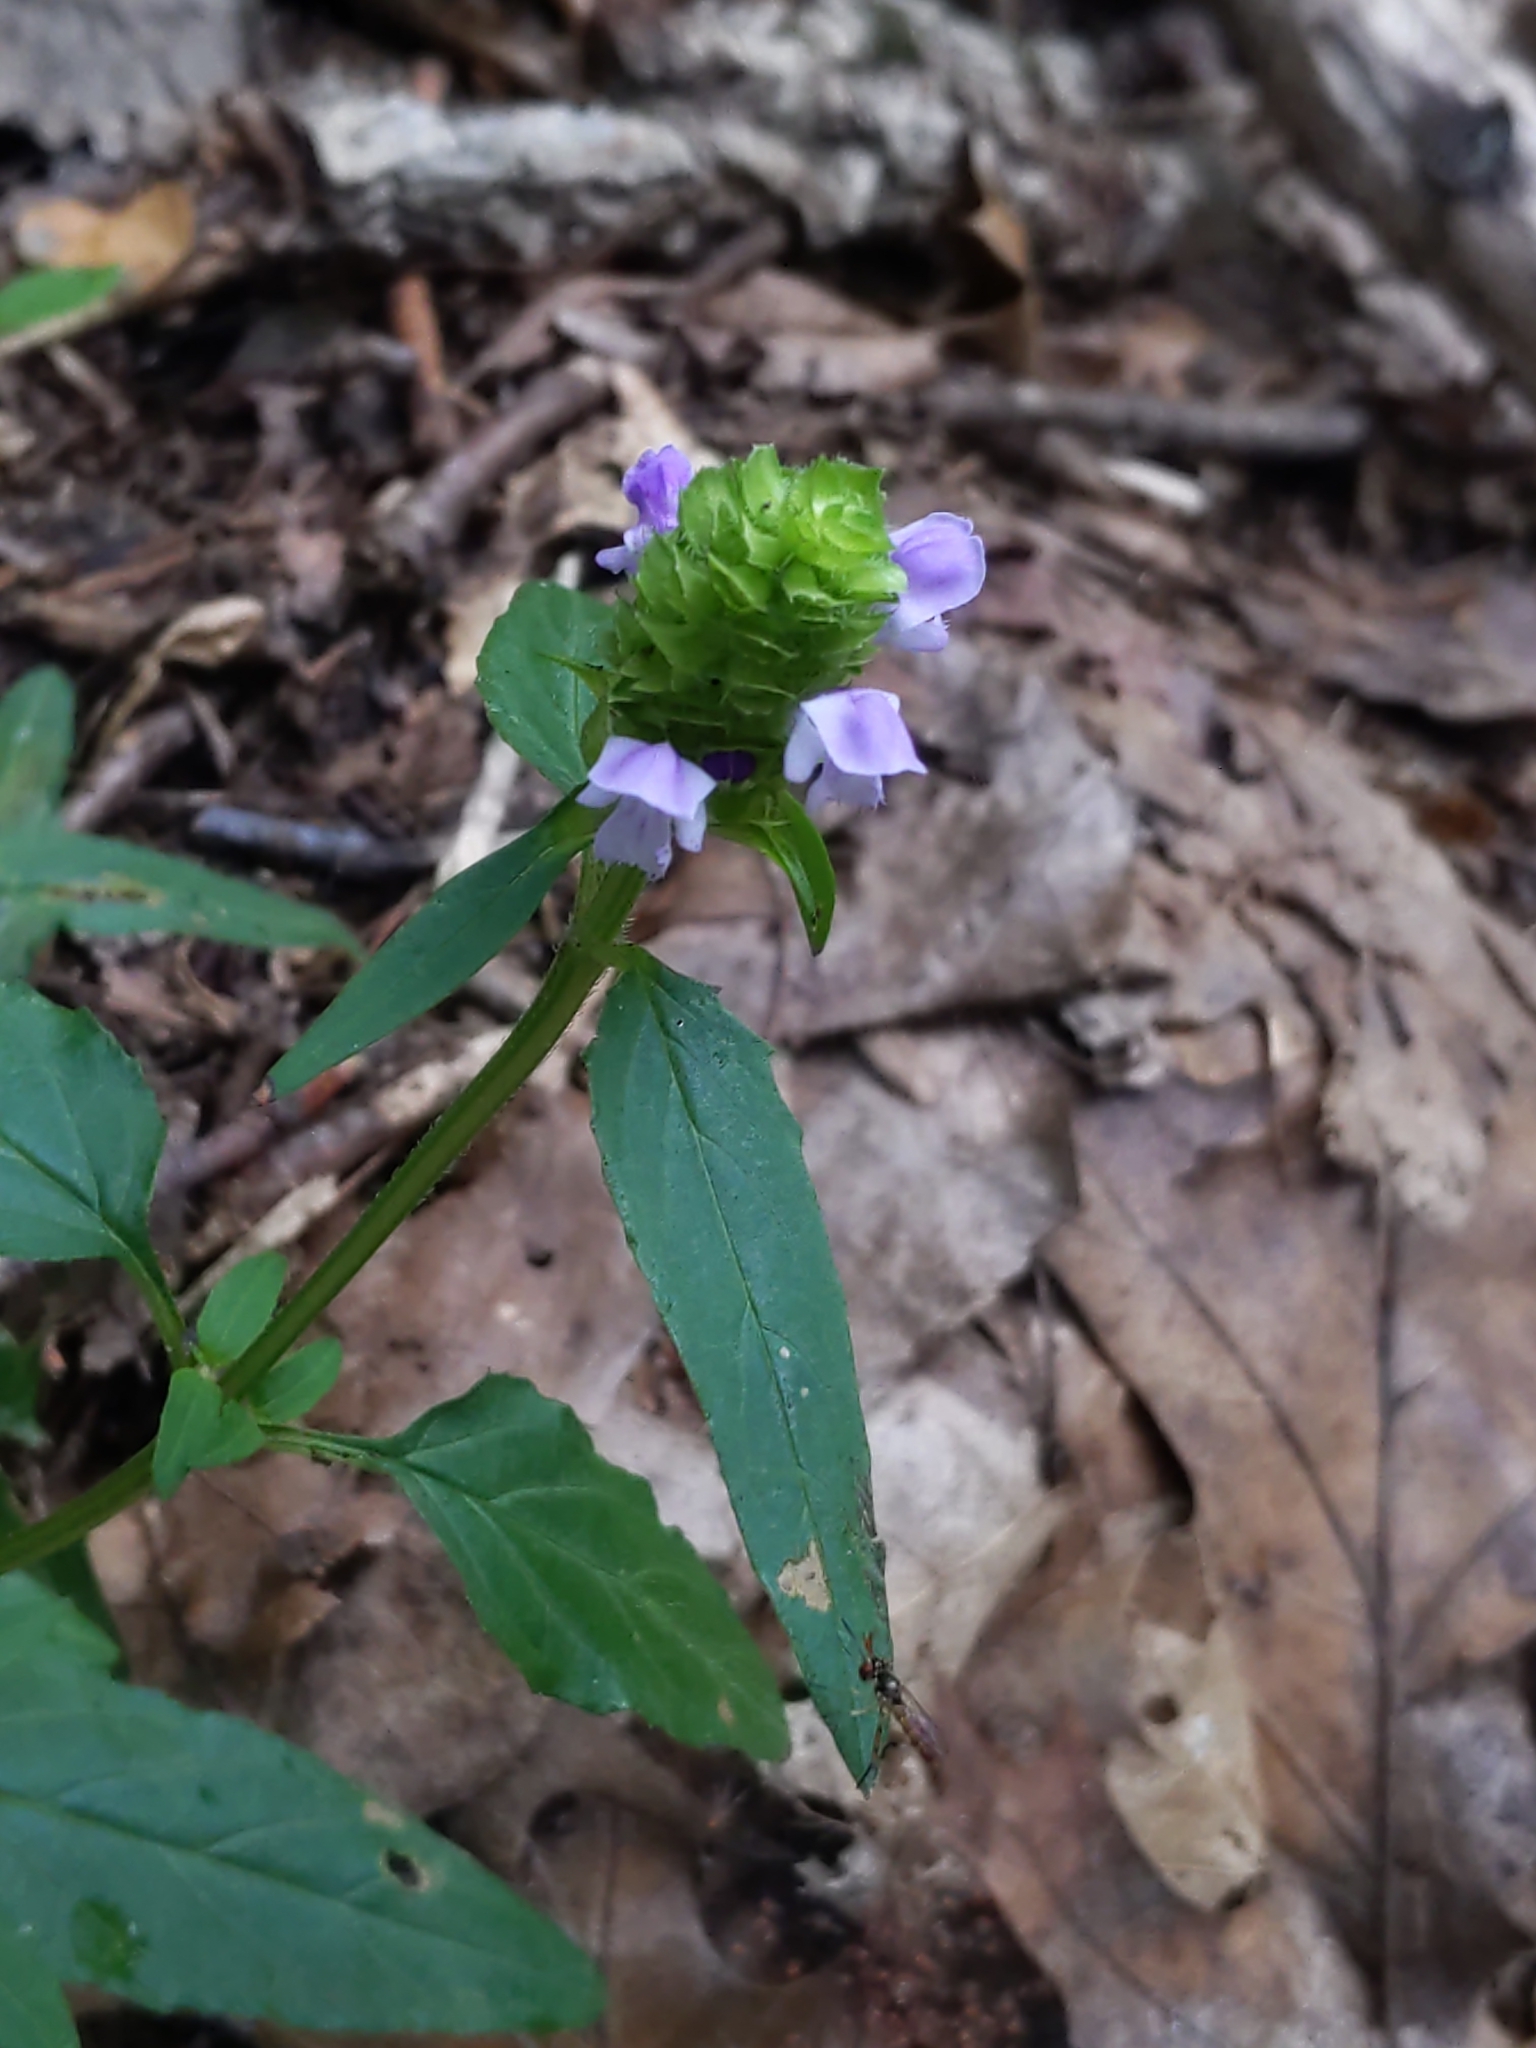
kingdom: Plantae
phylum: Tracheophyta
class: Magnoliopsida
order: Lamiales
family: Lamiaceae
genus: Prunella
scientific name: Prunella vulgaris
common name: Heal-all
